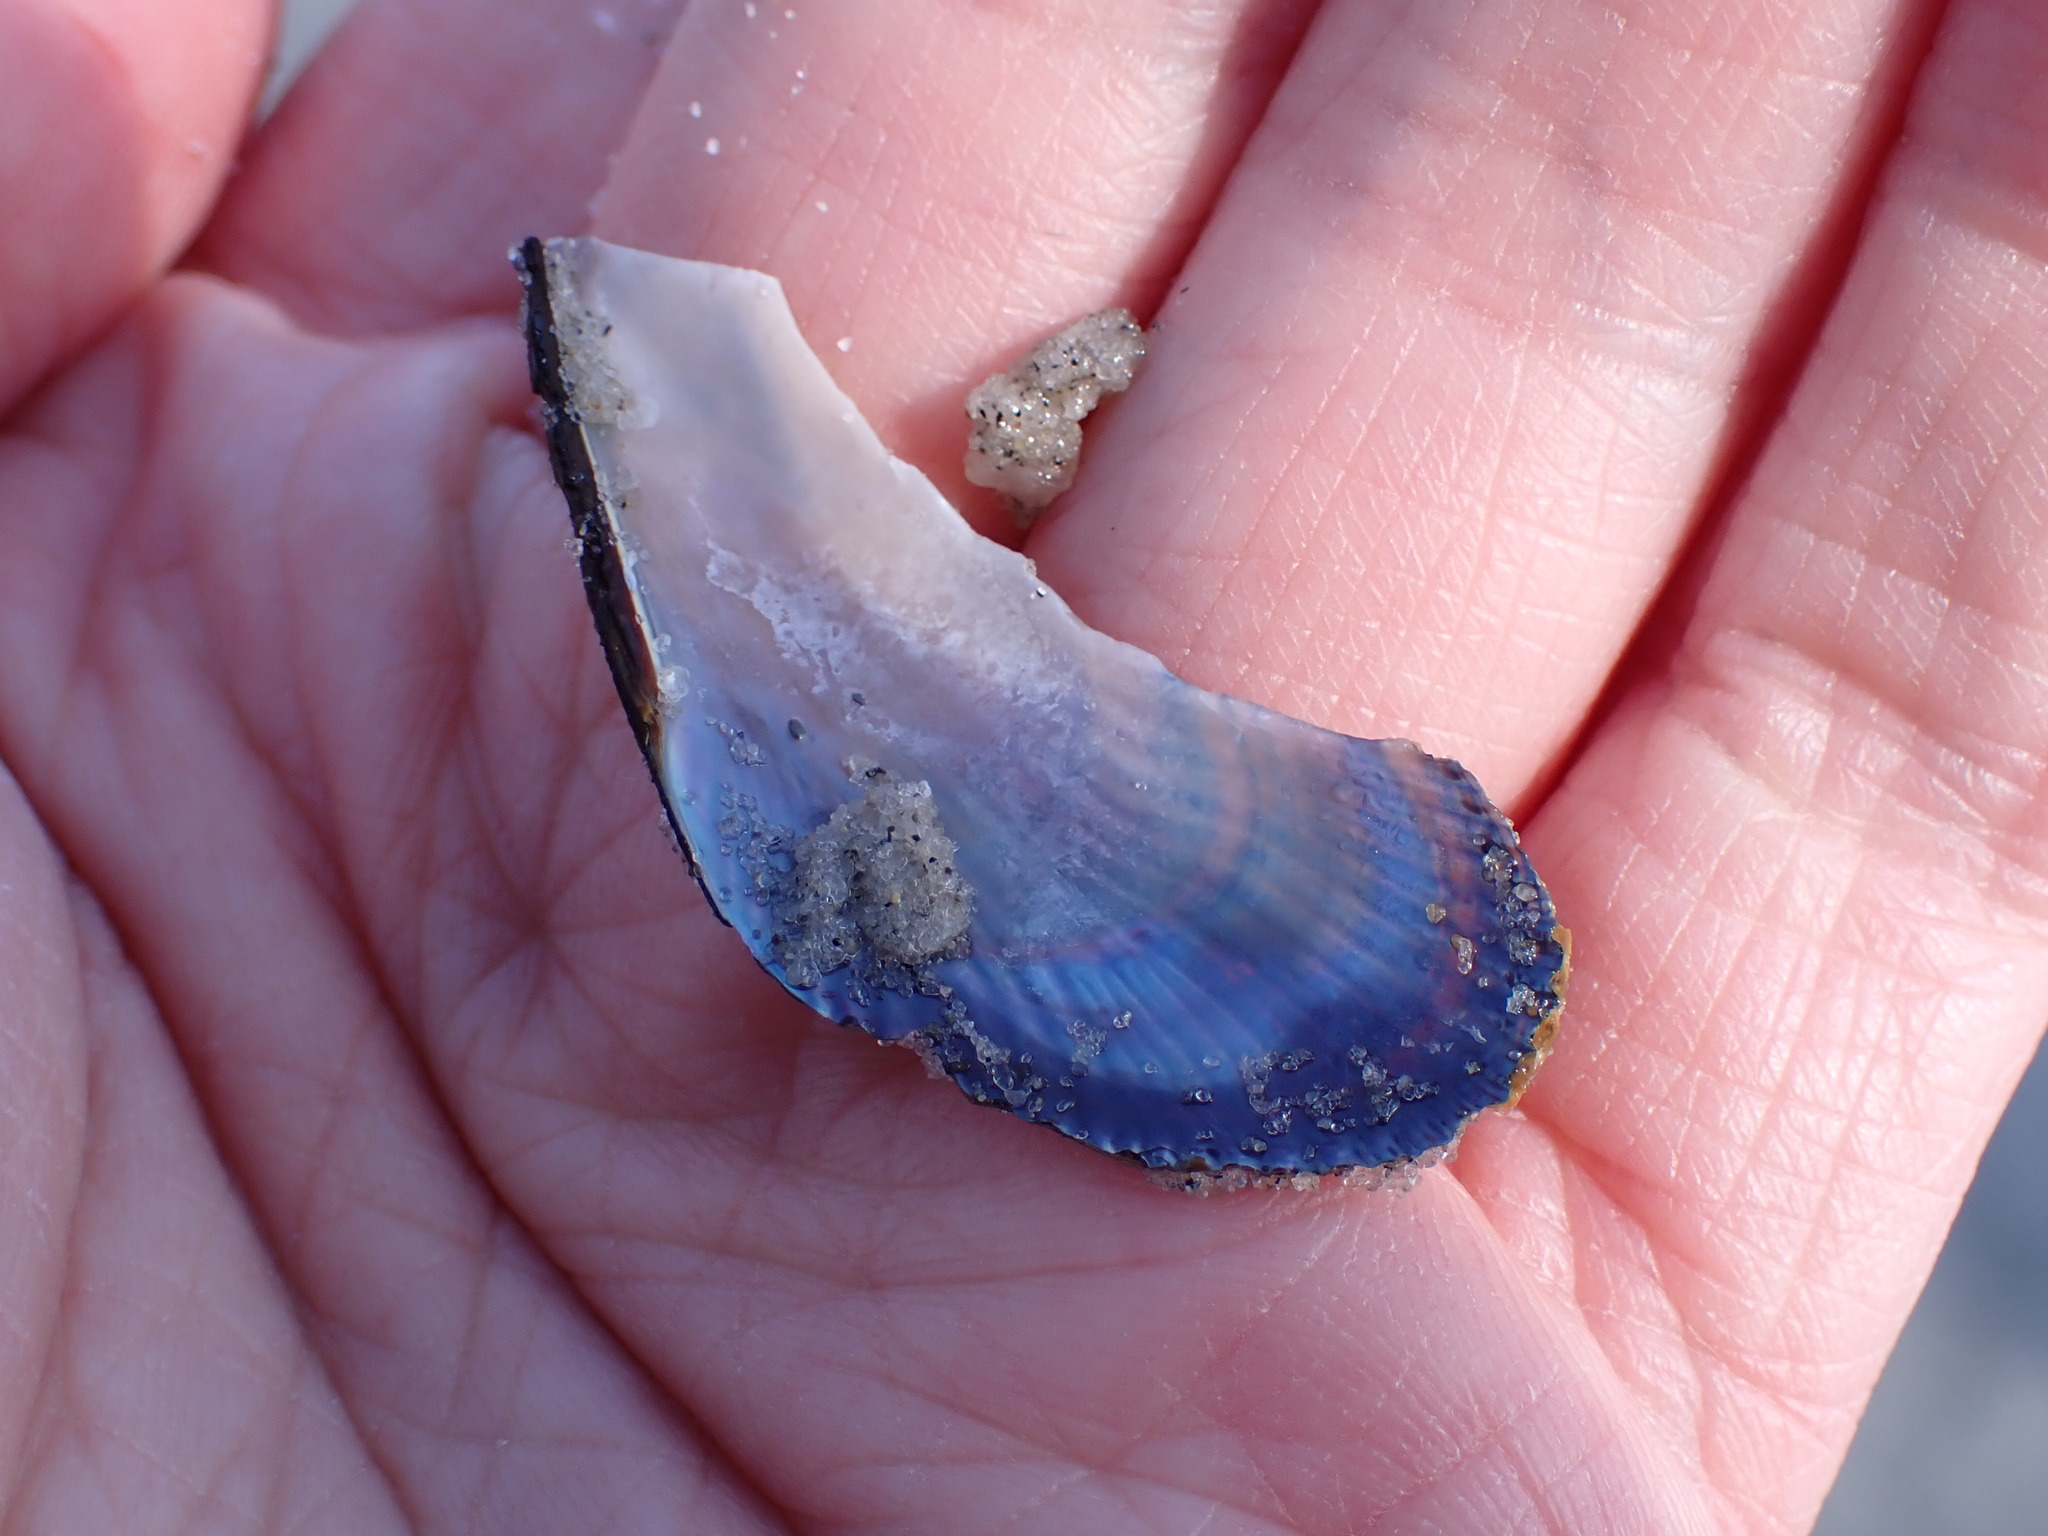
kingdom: Animalia
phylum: Mollusca
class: Bivalvia
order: Mytilida
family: Mytilidae
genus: Geukensia
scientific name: Geukensia demissa
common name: Ribbed mussel
